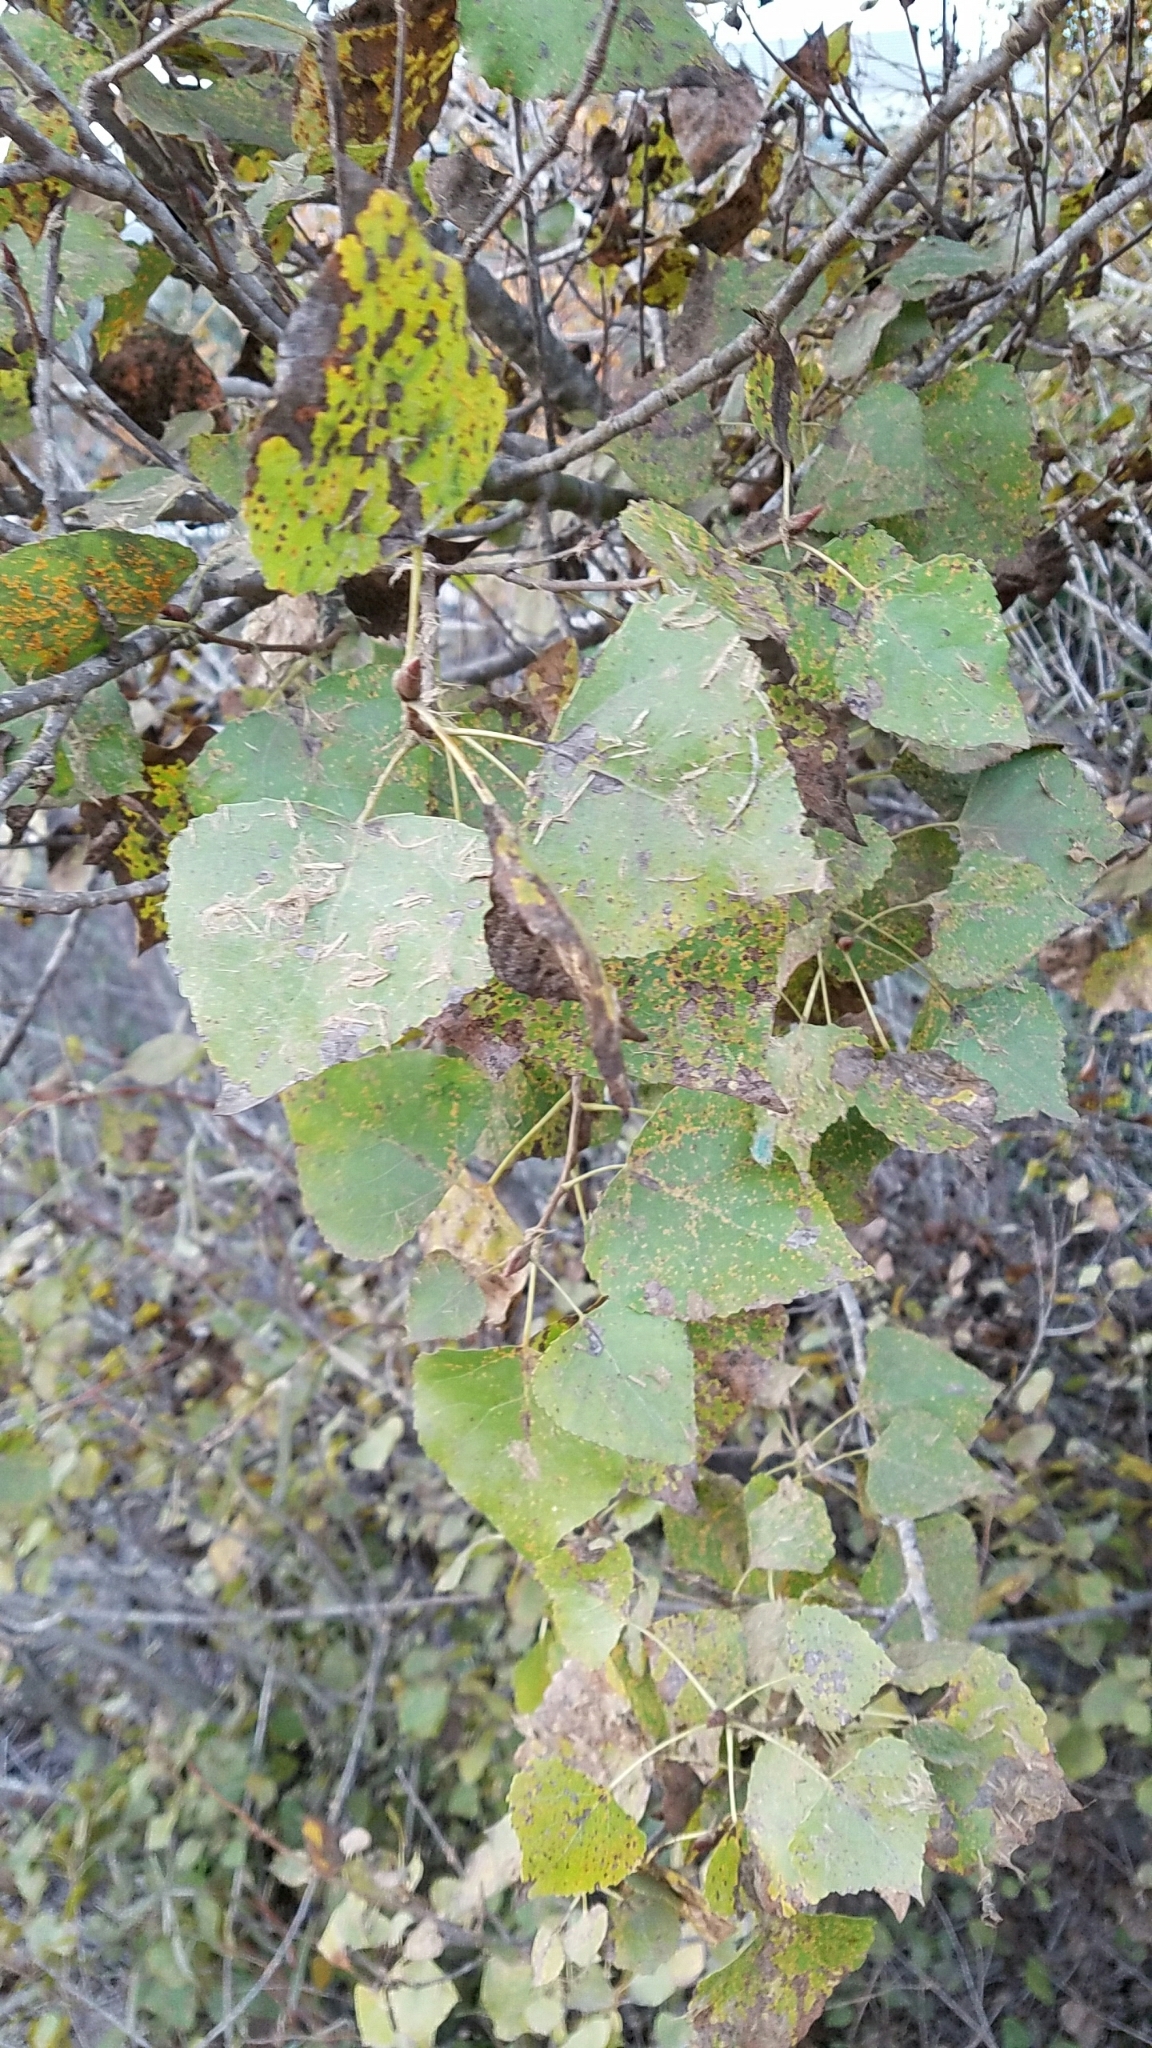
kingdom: Plantae
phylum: Tracheophyta
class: Magnoliopsida
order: Malpighiales
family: Salicaceae
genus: Populus
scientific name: Populus fremontii
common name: Fremont's cottonwood
